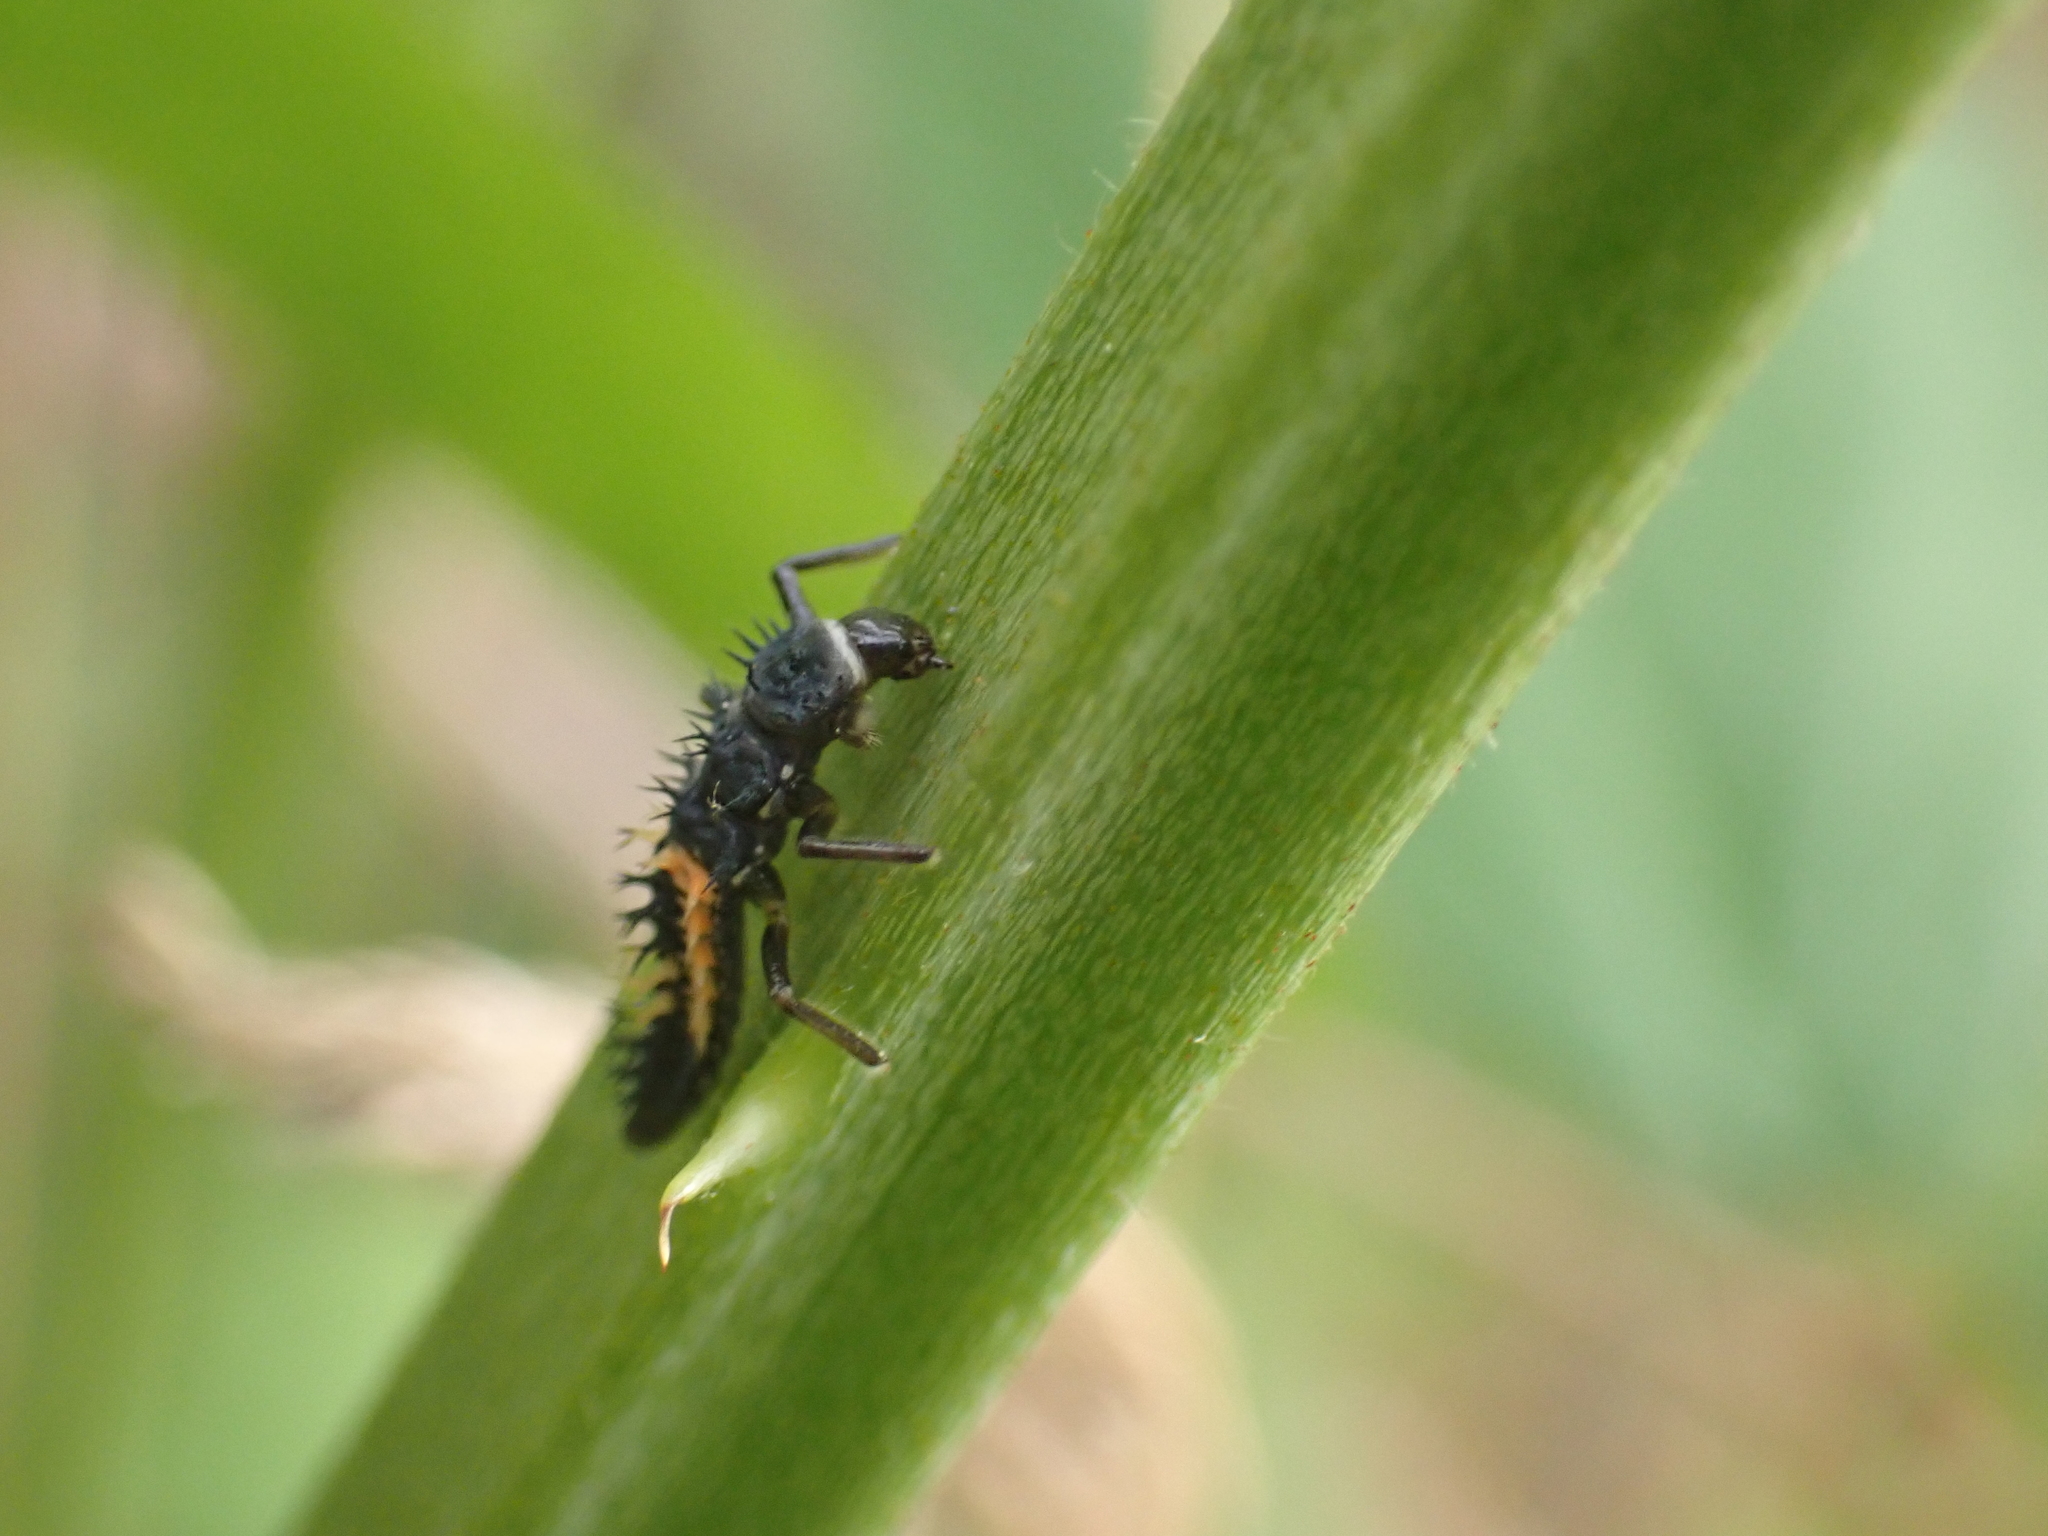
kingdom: Animalia
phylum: Arthropoda
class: Insecta
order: Coleoptera
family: Coccinellidae
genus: Harmonia
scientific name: Harmonia axyridis
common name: Harlequin ladybird
